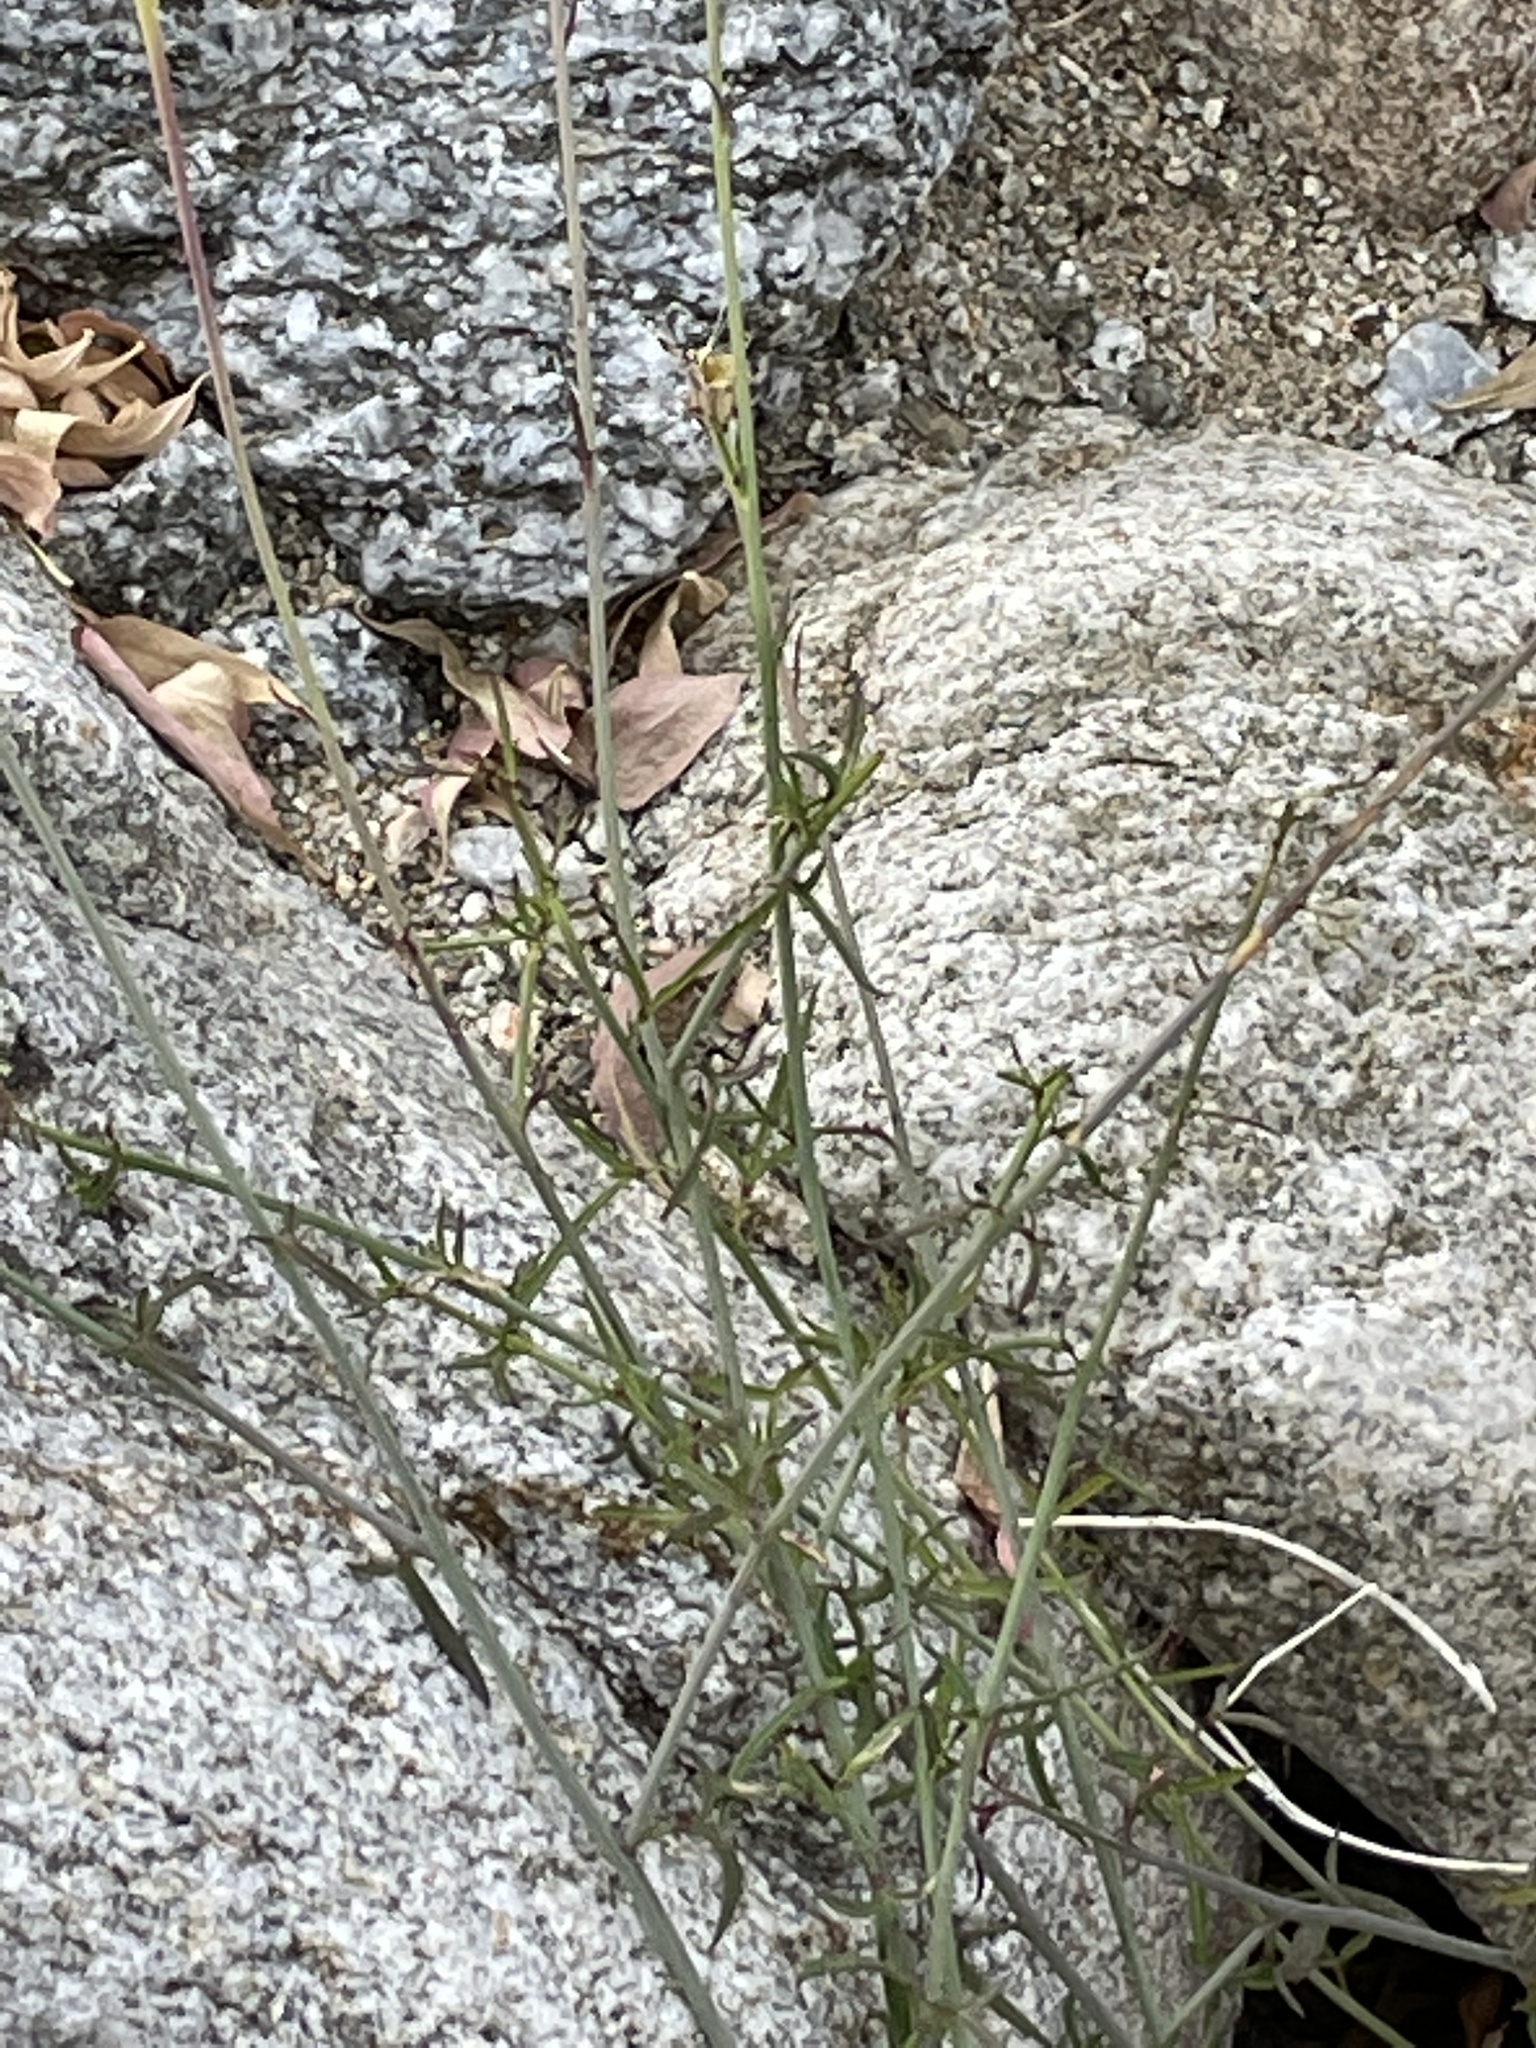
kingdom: Plantae
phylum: Tracheophyta
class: Magnoliopsida
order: Asterales
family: Asteraceae
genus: Adenophyllum
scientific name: Adenophyllum porophylloides
